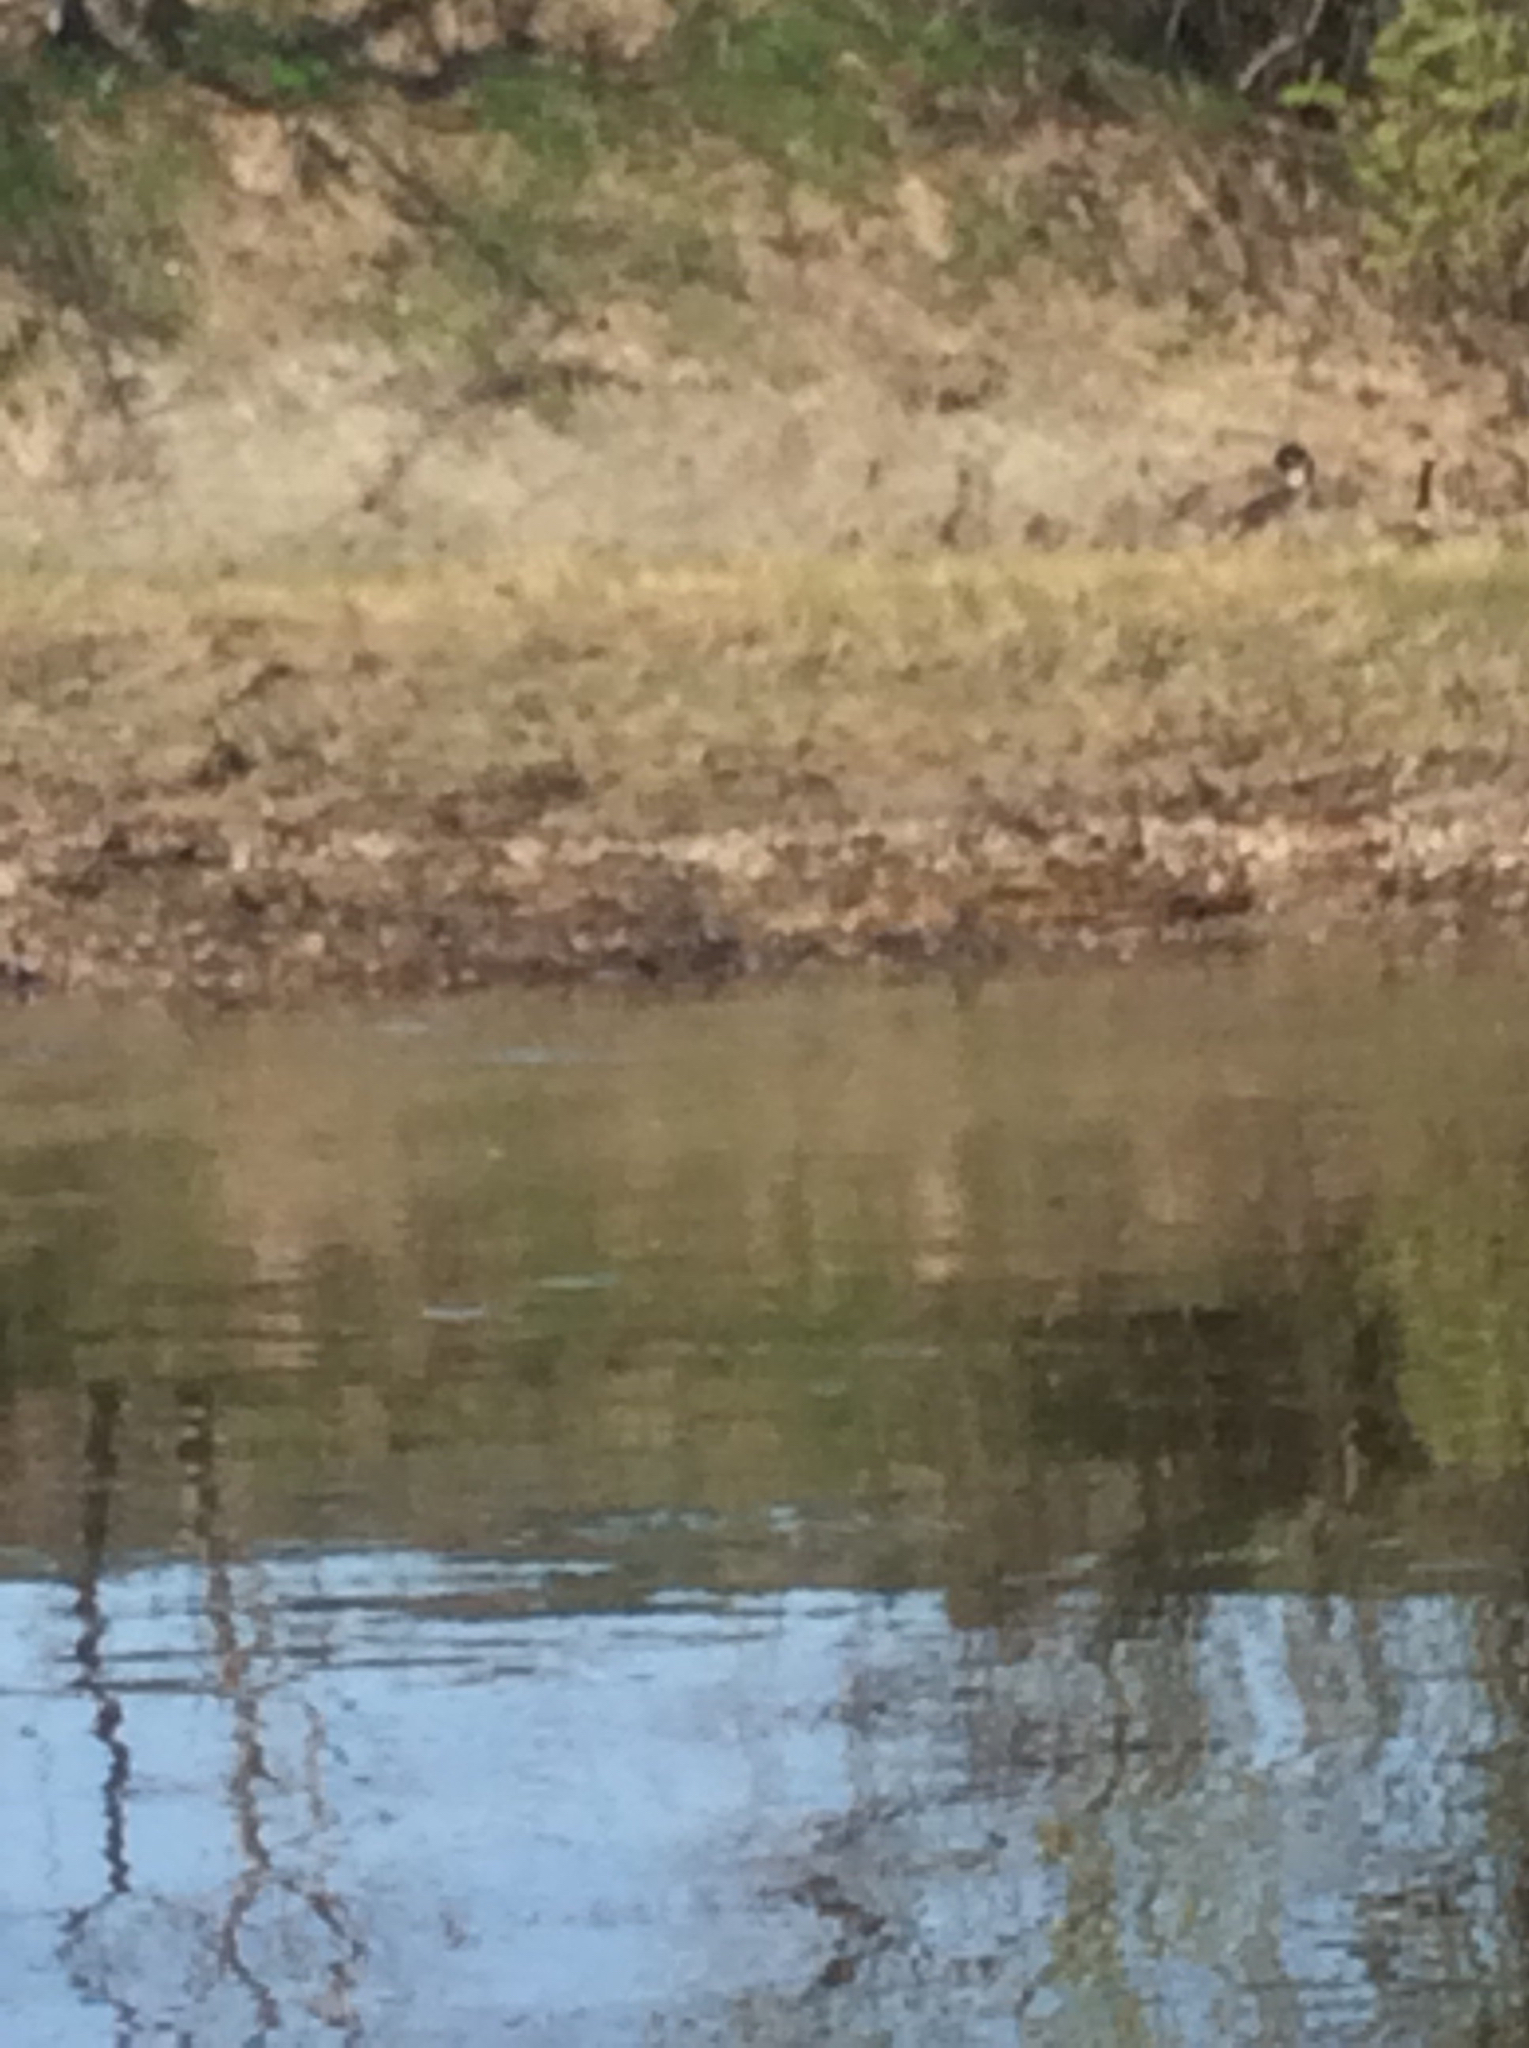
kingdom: Animalia
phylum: Chordata
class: Aves
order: Anseriformes
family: Anatidae
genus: Branta
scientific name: Branta canadensis
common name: Canada goose
